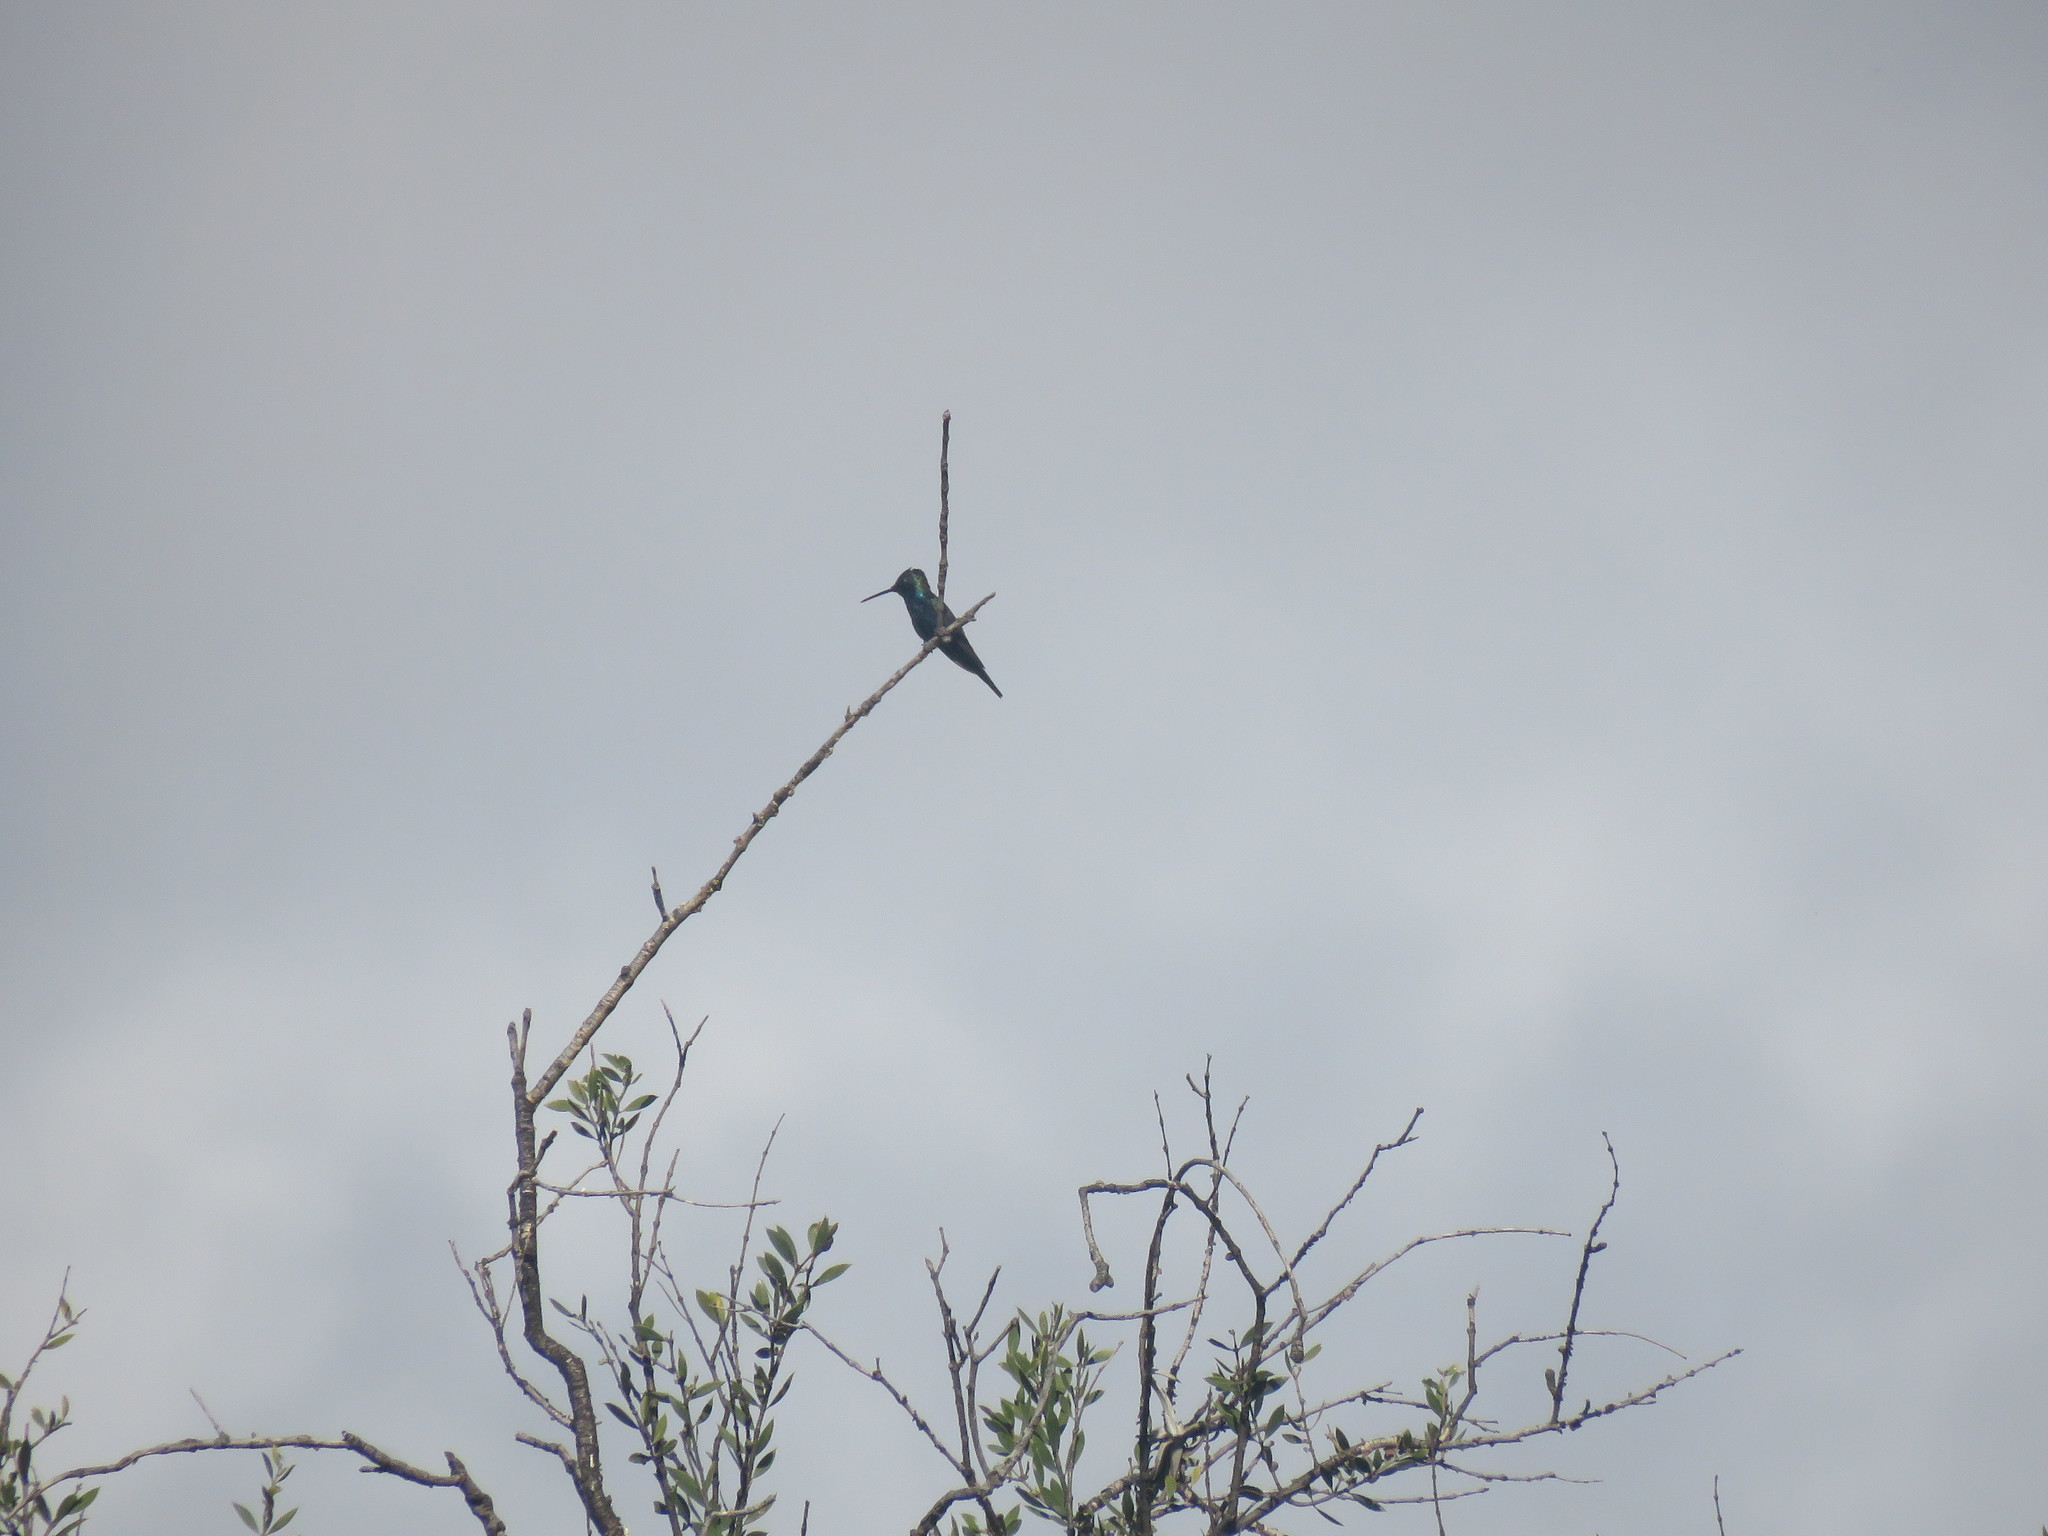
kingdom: Animalia
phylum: Chordata
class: Aves
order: Apodiformes
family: Trochilidae
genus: Heliomaster
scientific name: Heliomaster furcifer
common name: Blue-tufted starthroat
